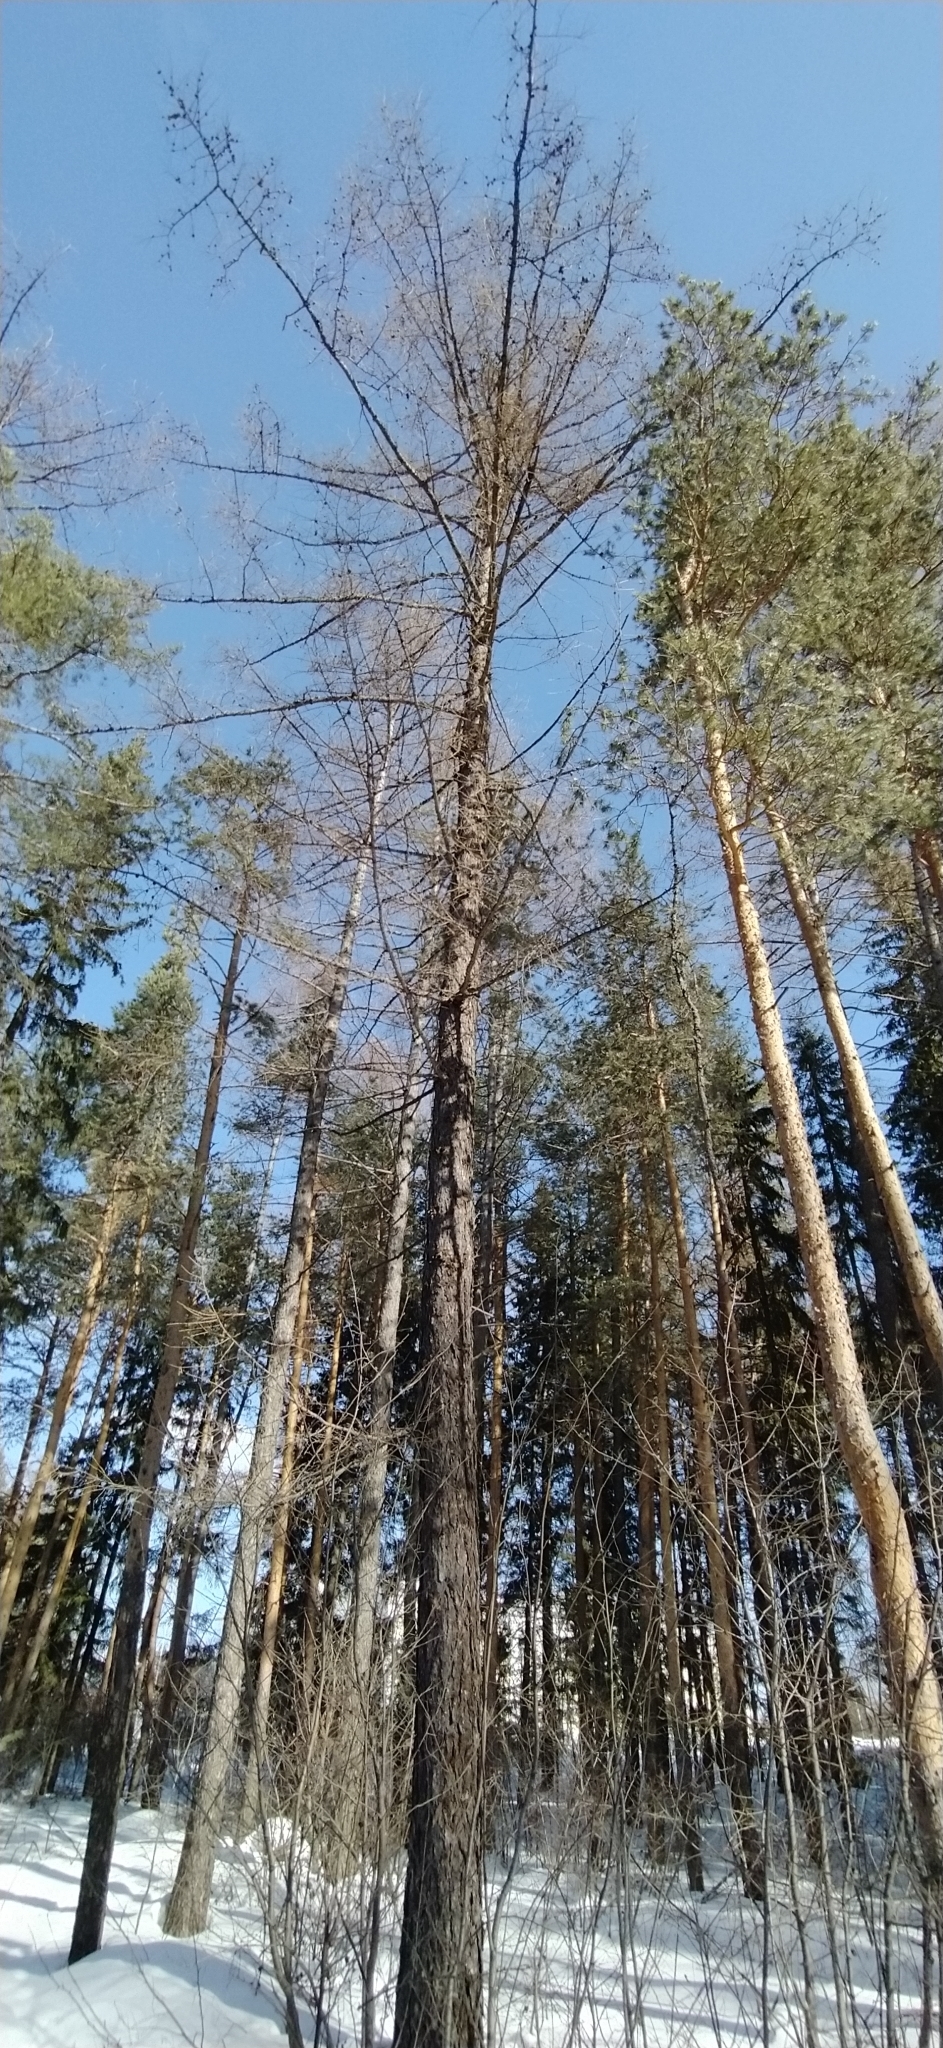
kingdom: Plantae
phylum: Tracheophyta
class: Pinopsida
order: Pinales
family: Pinaceae
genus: Larix
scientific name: Larix sibirica
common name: Siberian larch
